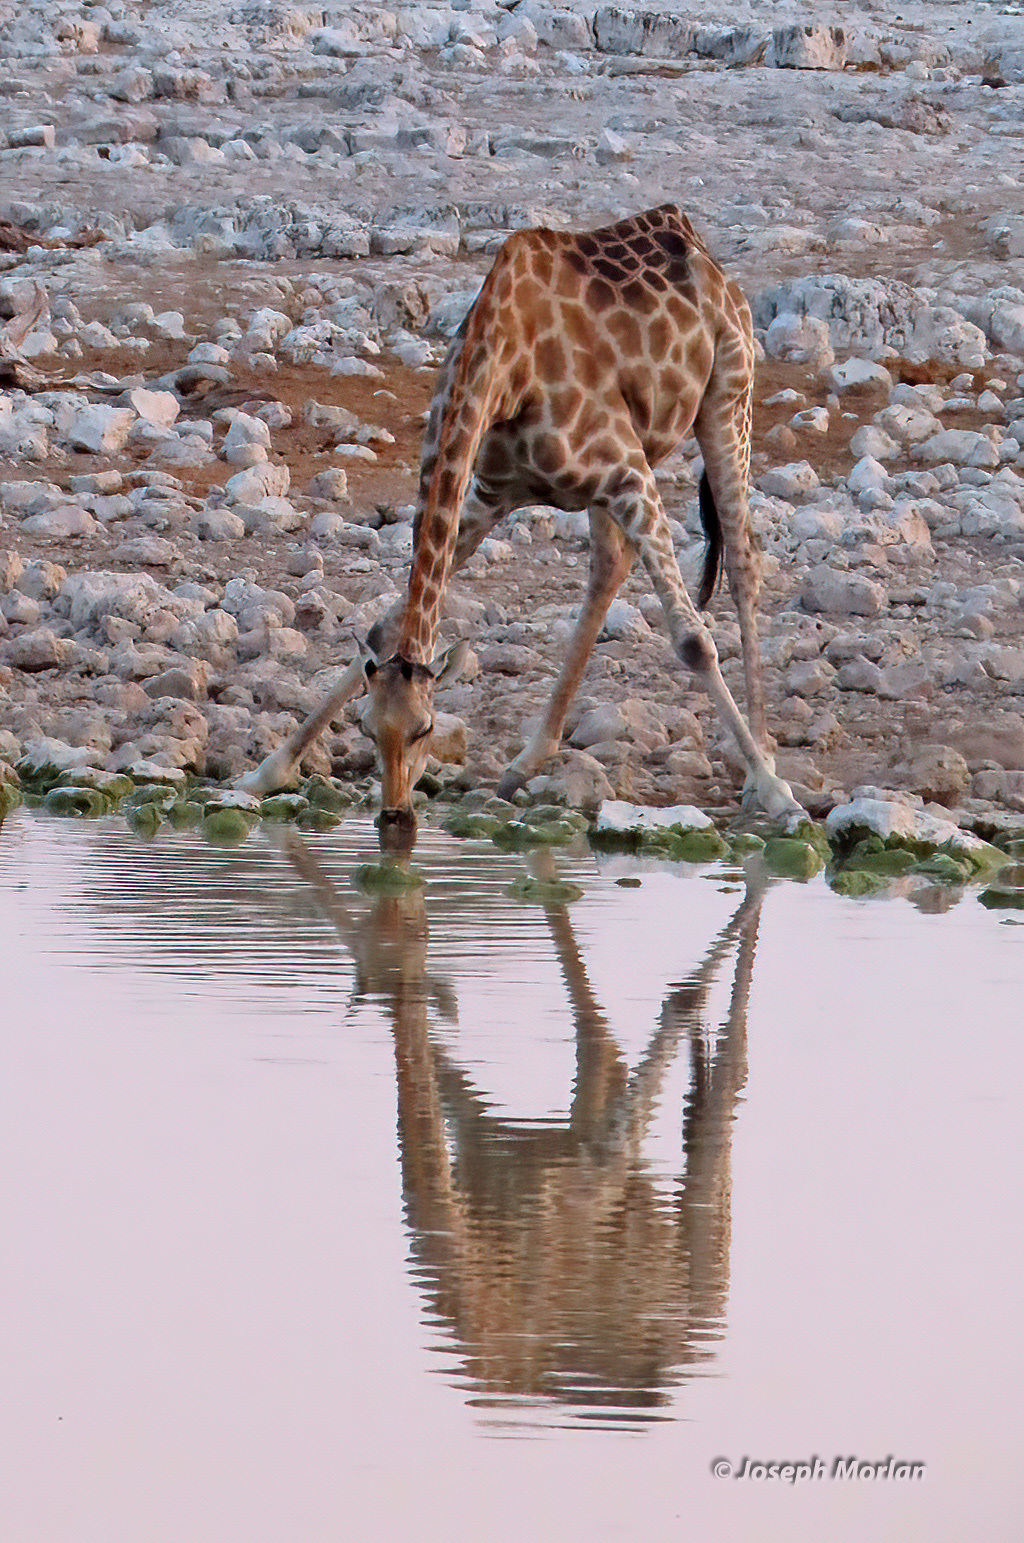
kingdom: Animalia
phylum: Chordata
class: Mammalia
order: Artiodactyla
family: Giraffidae
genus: Giraffa
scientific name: Giraffa giraffa
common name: Southern giraffe
